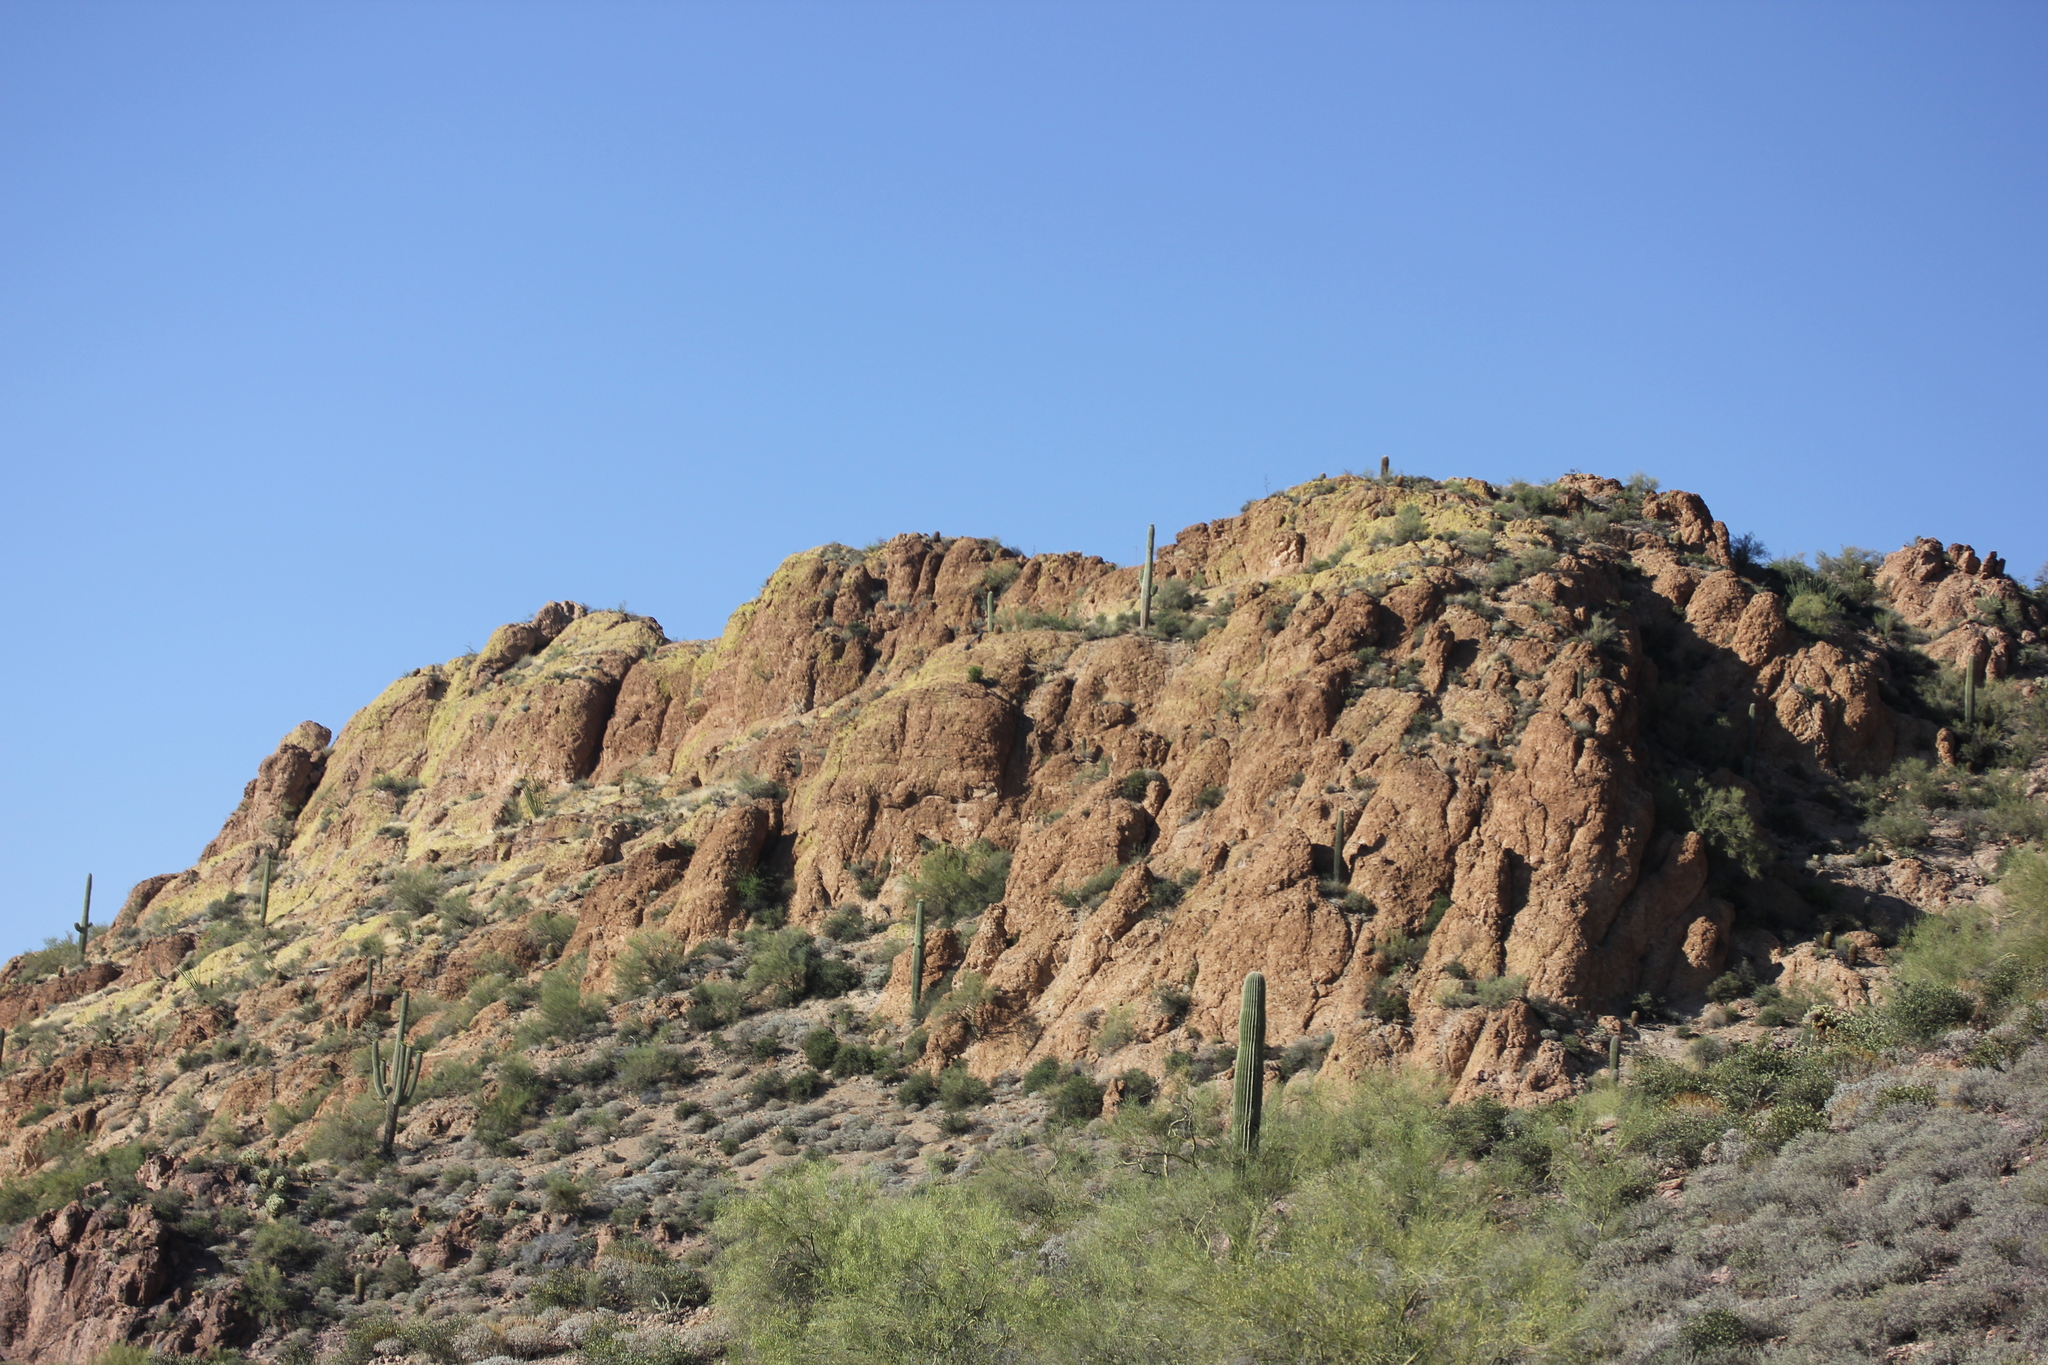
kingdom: Plantae
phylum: Tracheophyta
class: Magnoliopsida
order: Caryophyllales
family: Cactaceae
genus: Carnegiea
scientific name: Carnegiea gigantea
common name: Saguaro
